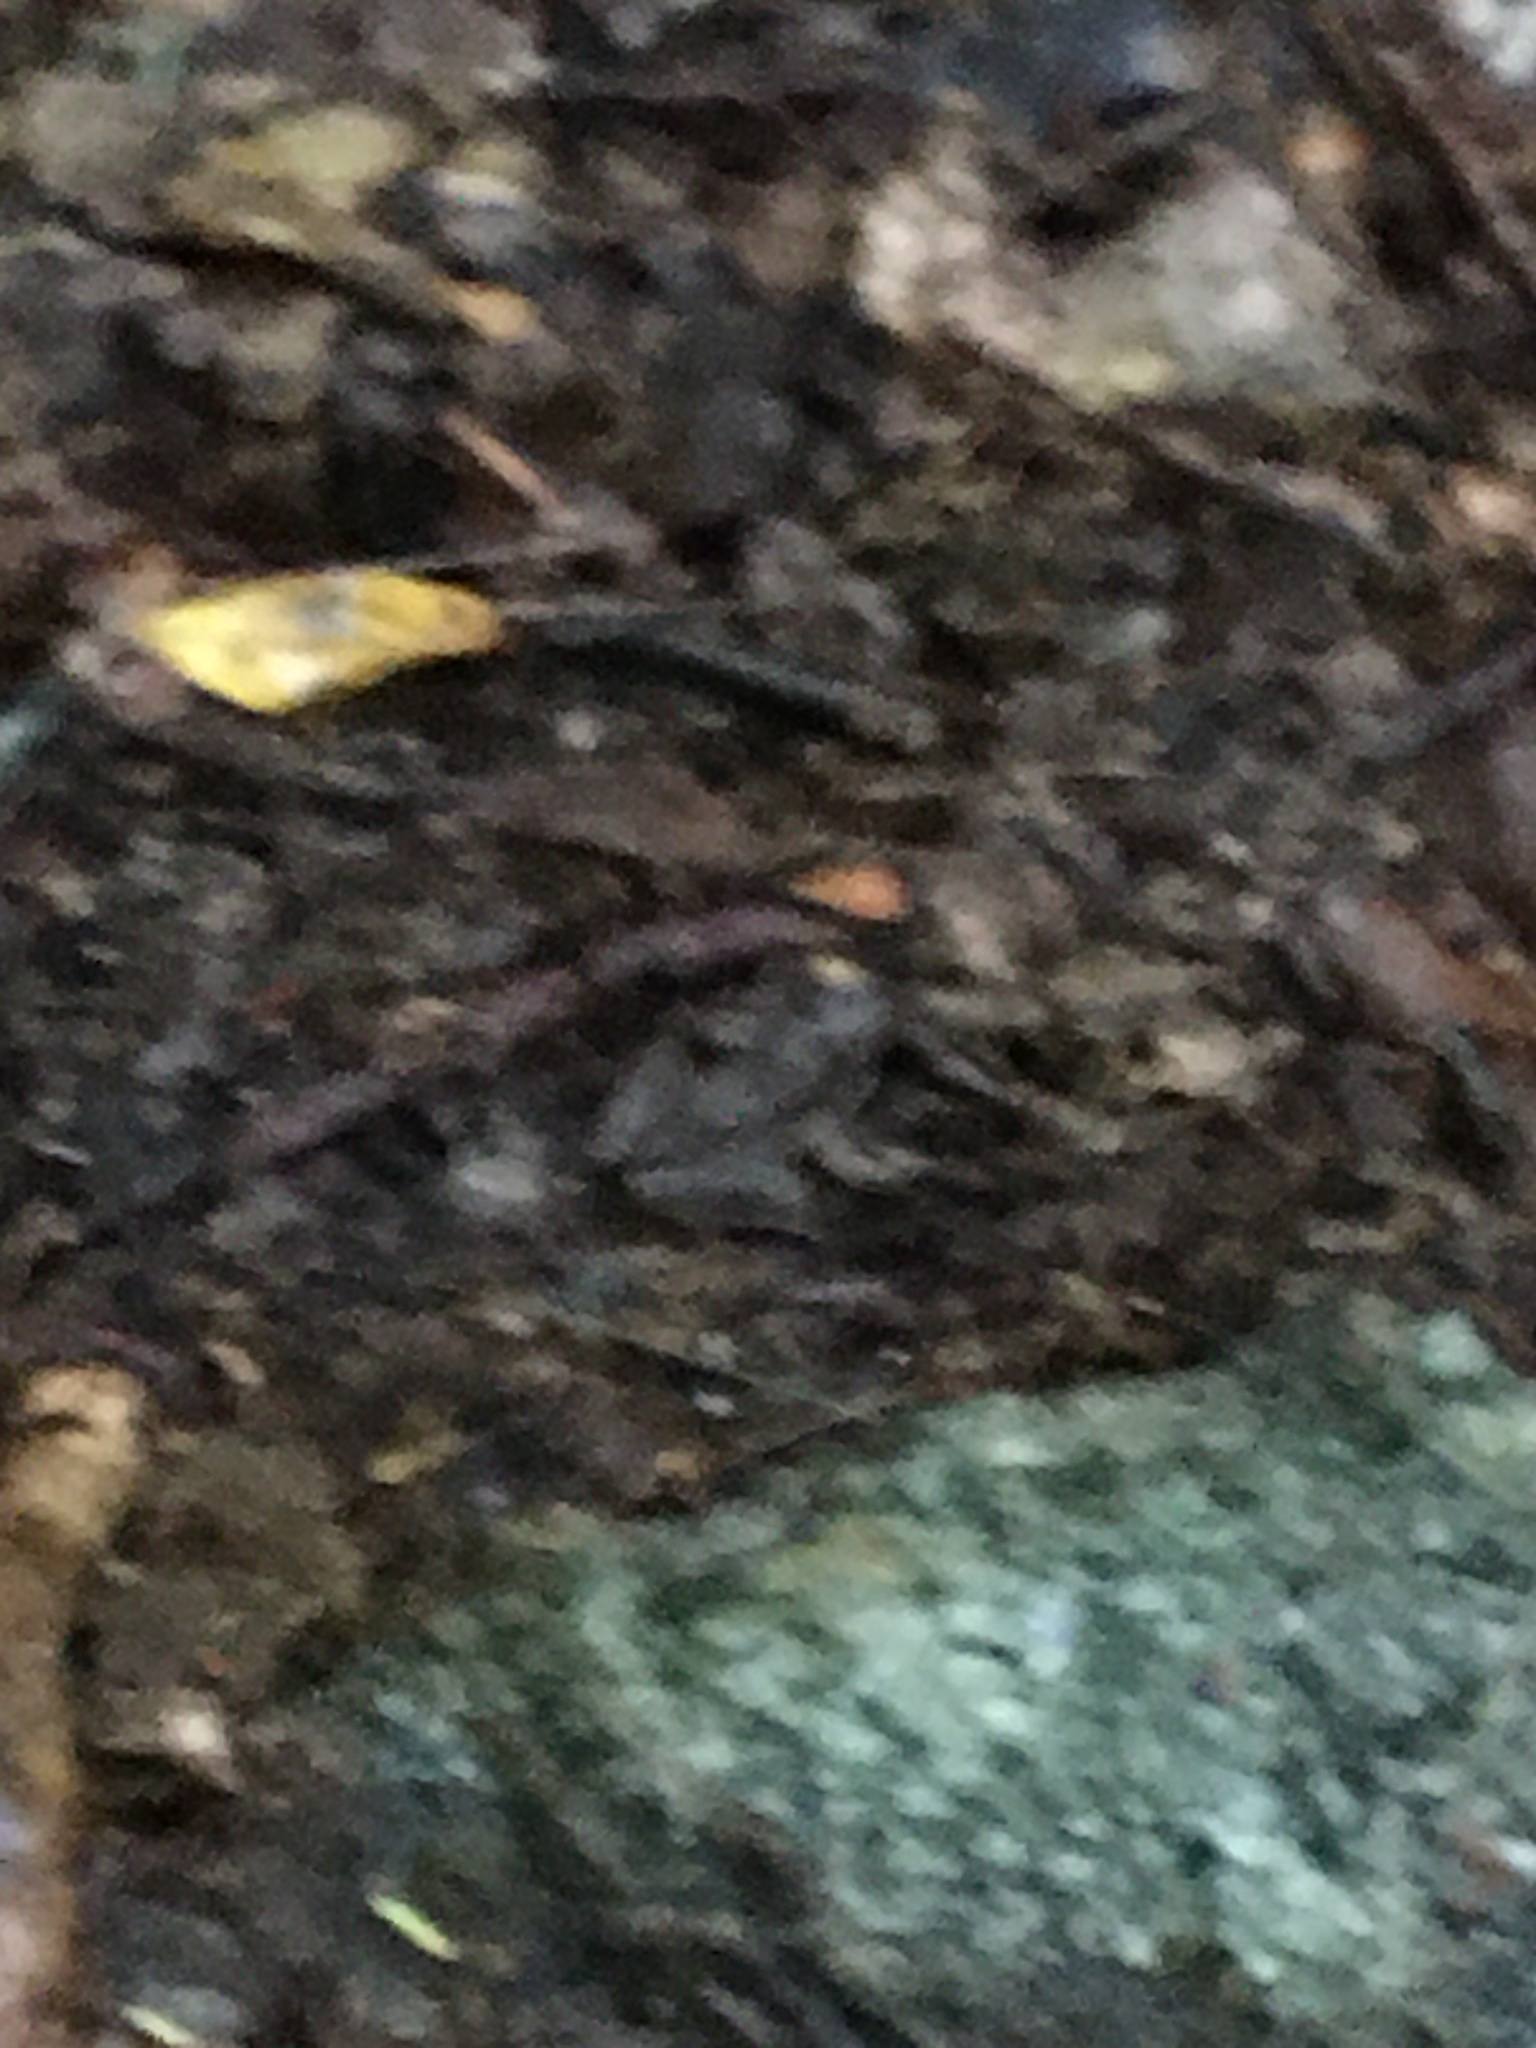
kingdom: Animalia
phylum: Chordata
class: Amphibia
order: Anura
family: Ranidae
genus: Lithobates
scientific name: Lithobates sylvaticus
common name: Wood frog
